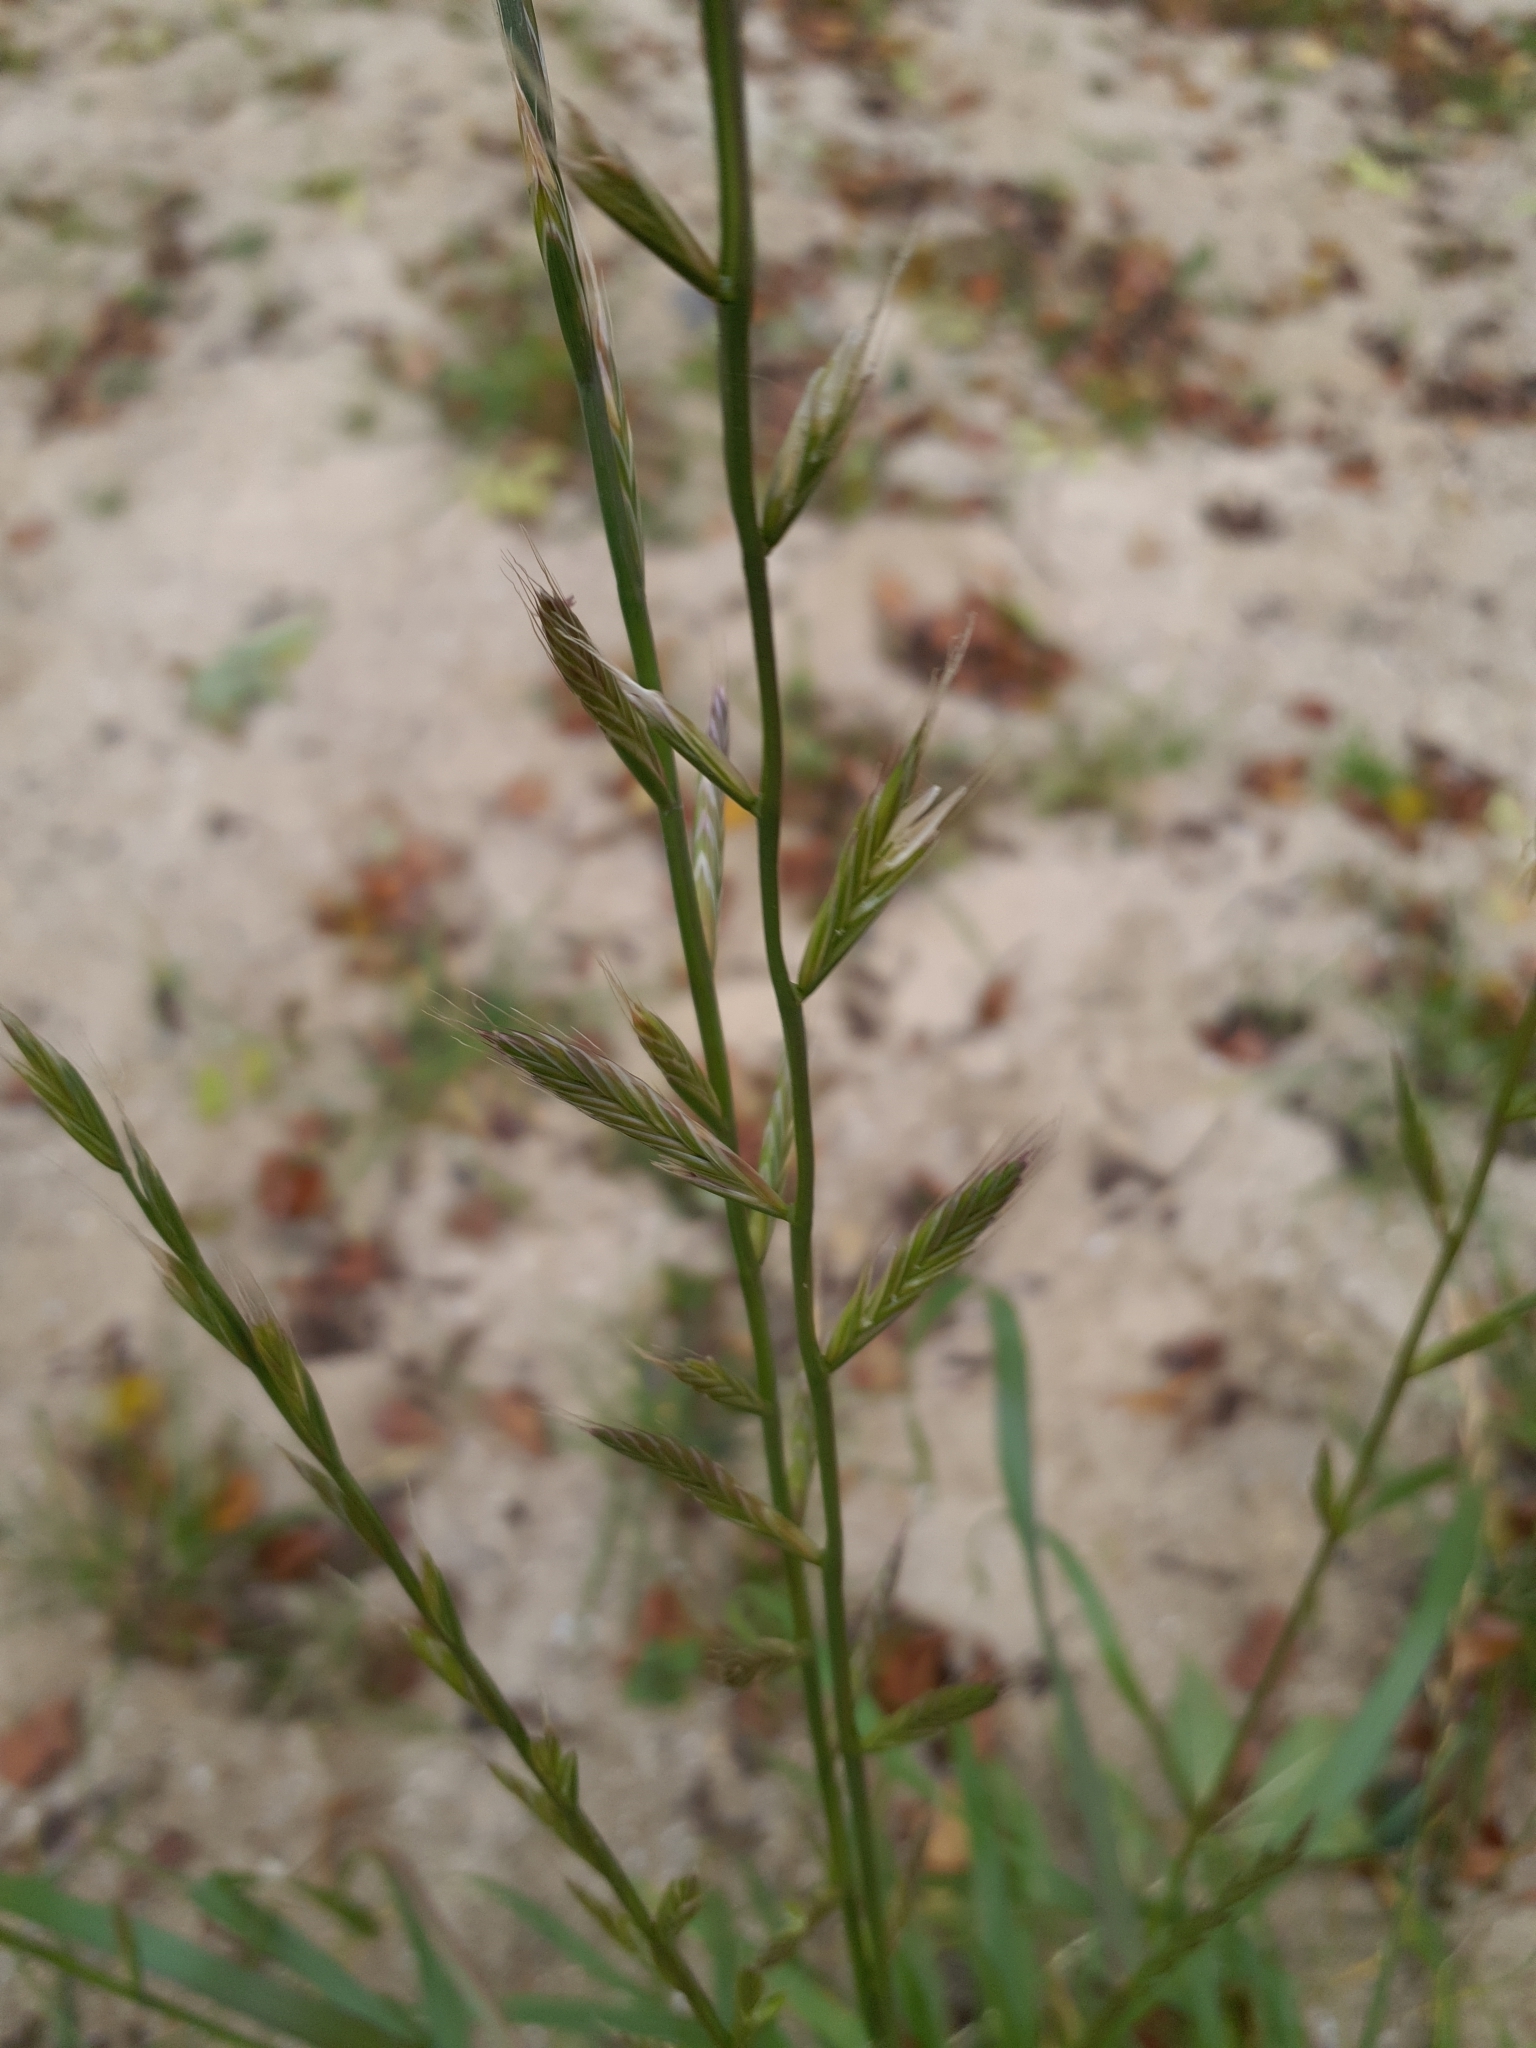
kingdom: Plantae
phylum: Tracheophyta
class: Liliopsida
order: Poales
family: Poaceae
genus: Lolium
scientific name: Lolium multiflorum
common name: Annual ryegrass
